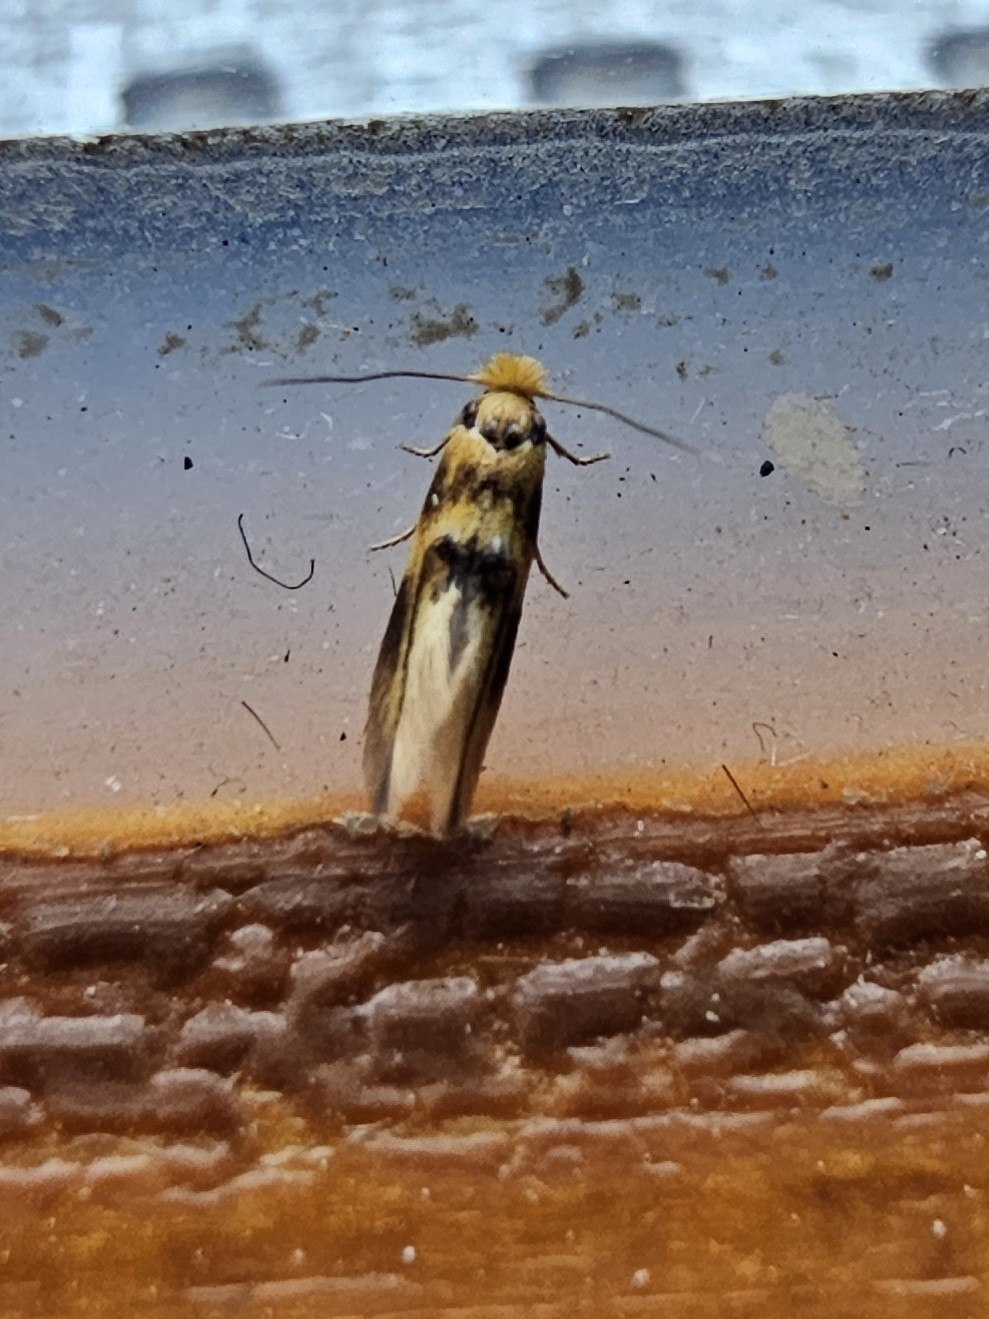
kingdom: Animalia
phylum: Arthropoda
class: Insecta
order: Lepidoptera
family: Bucculatricidae
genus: Bucculatrix
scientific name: Bucculatrix thoracella
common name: Lime bent-wing
